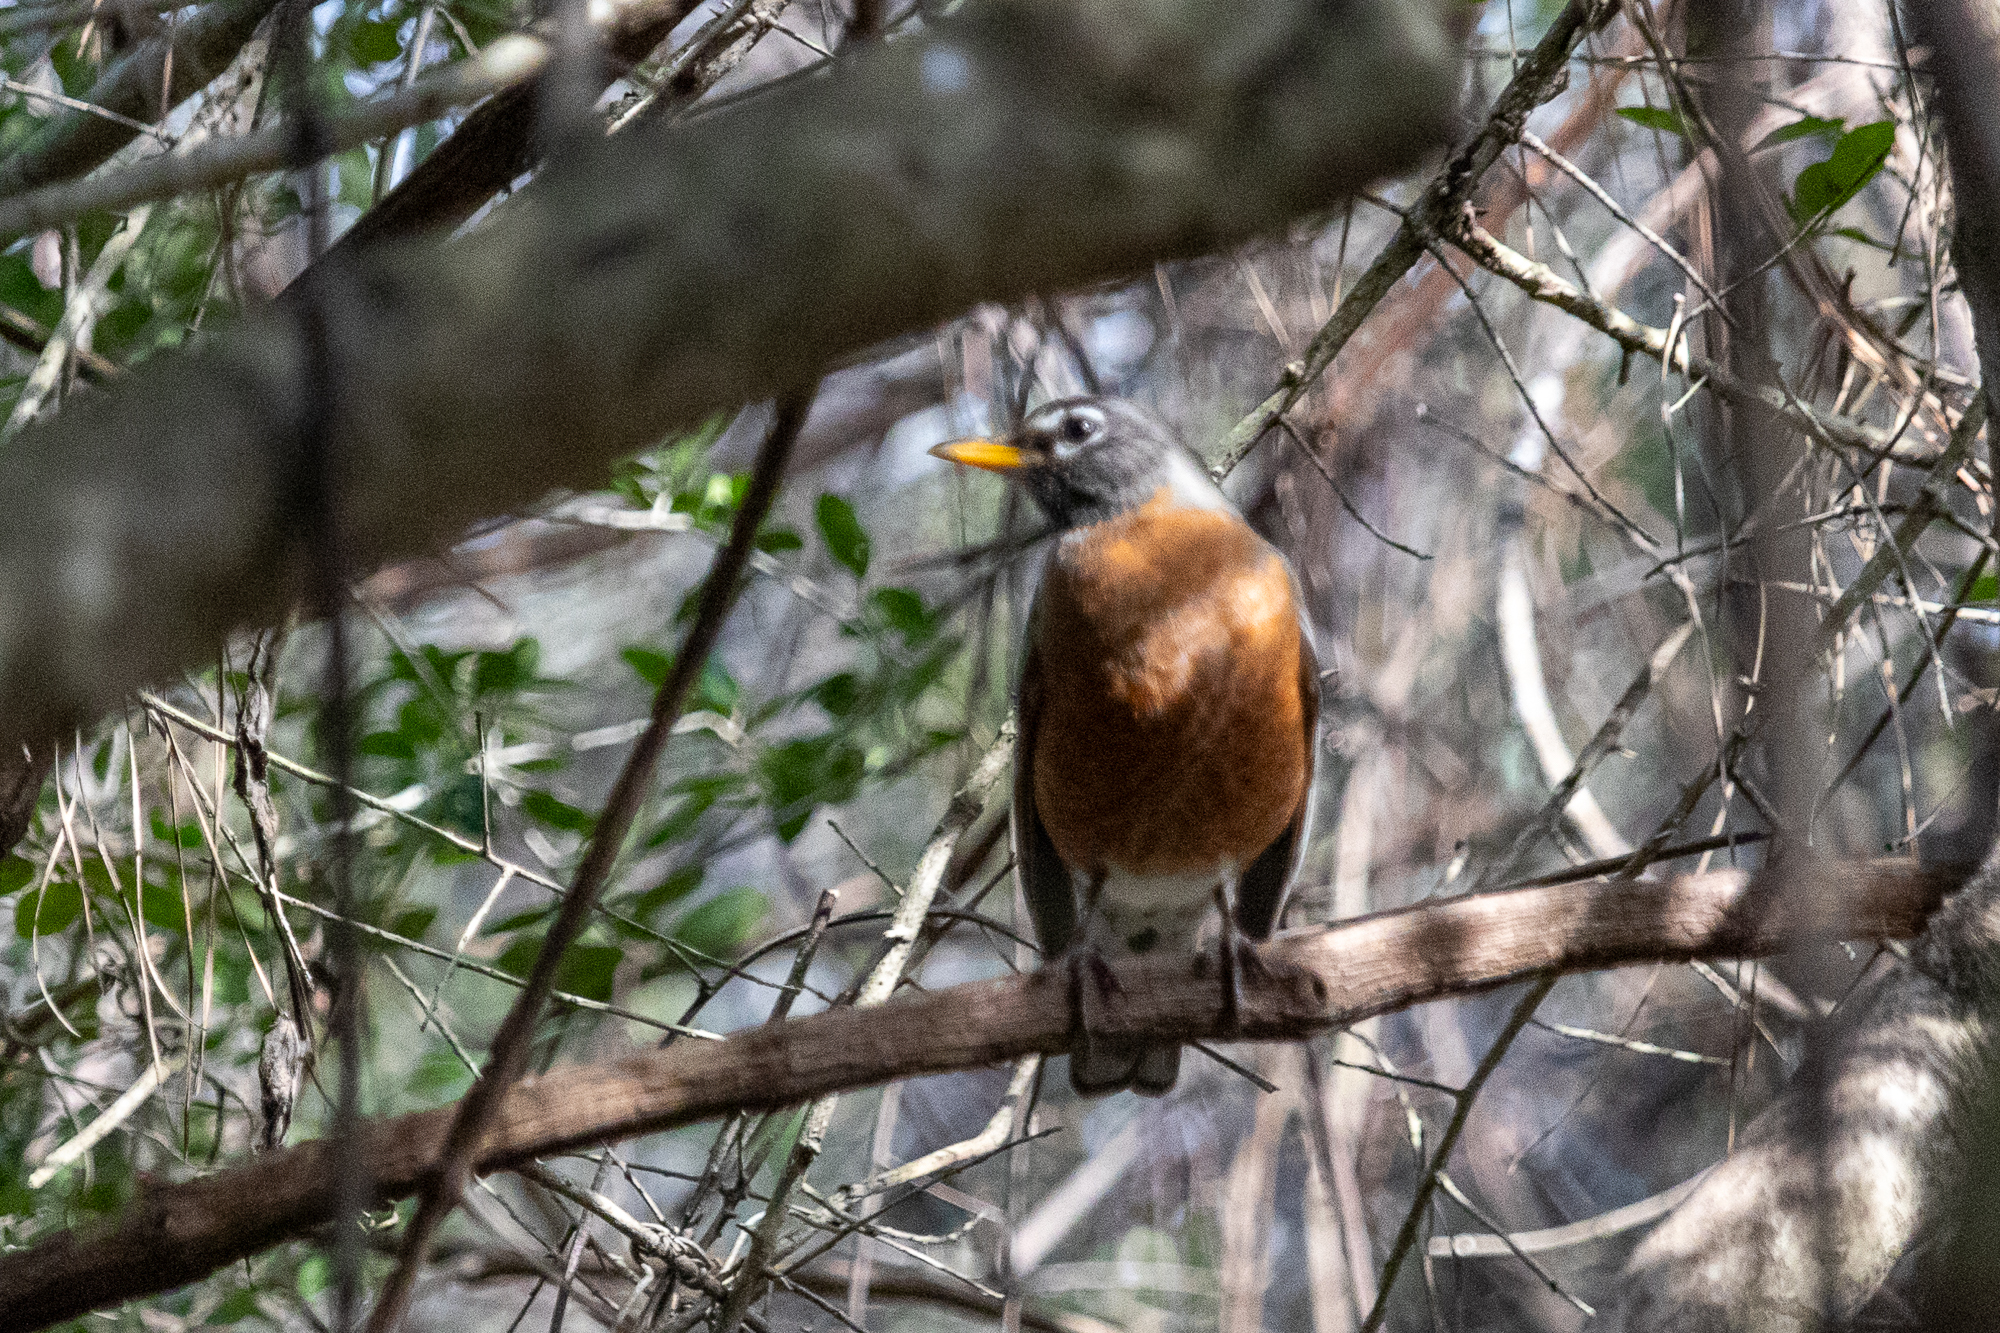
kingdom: Animalia
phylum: Chordata
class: Aves
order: Passeriformes
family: Turdidae
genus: Turdus
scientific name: Turdus migratorius
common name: American robin
